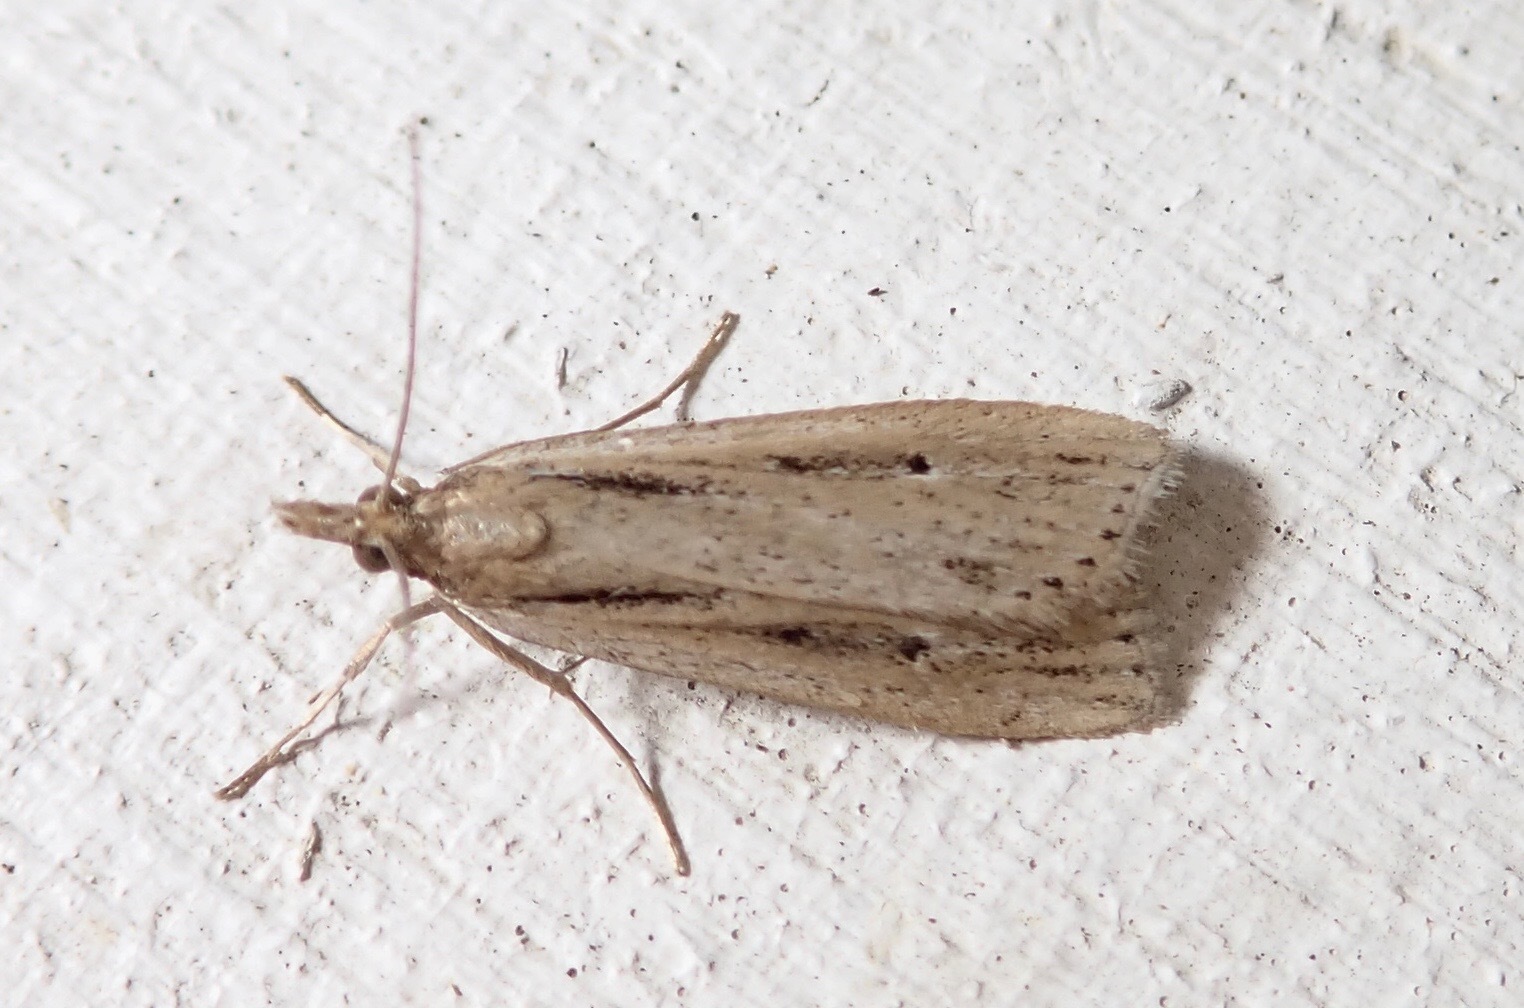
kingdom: Animalia
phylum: Arthropoda
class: Insecta
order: Lepidoptera
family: Crambidae
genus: Eudonia
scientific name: Eudonia sabulosella
